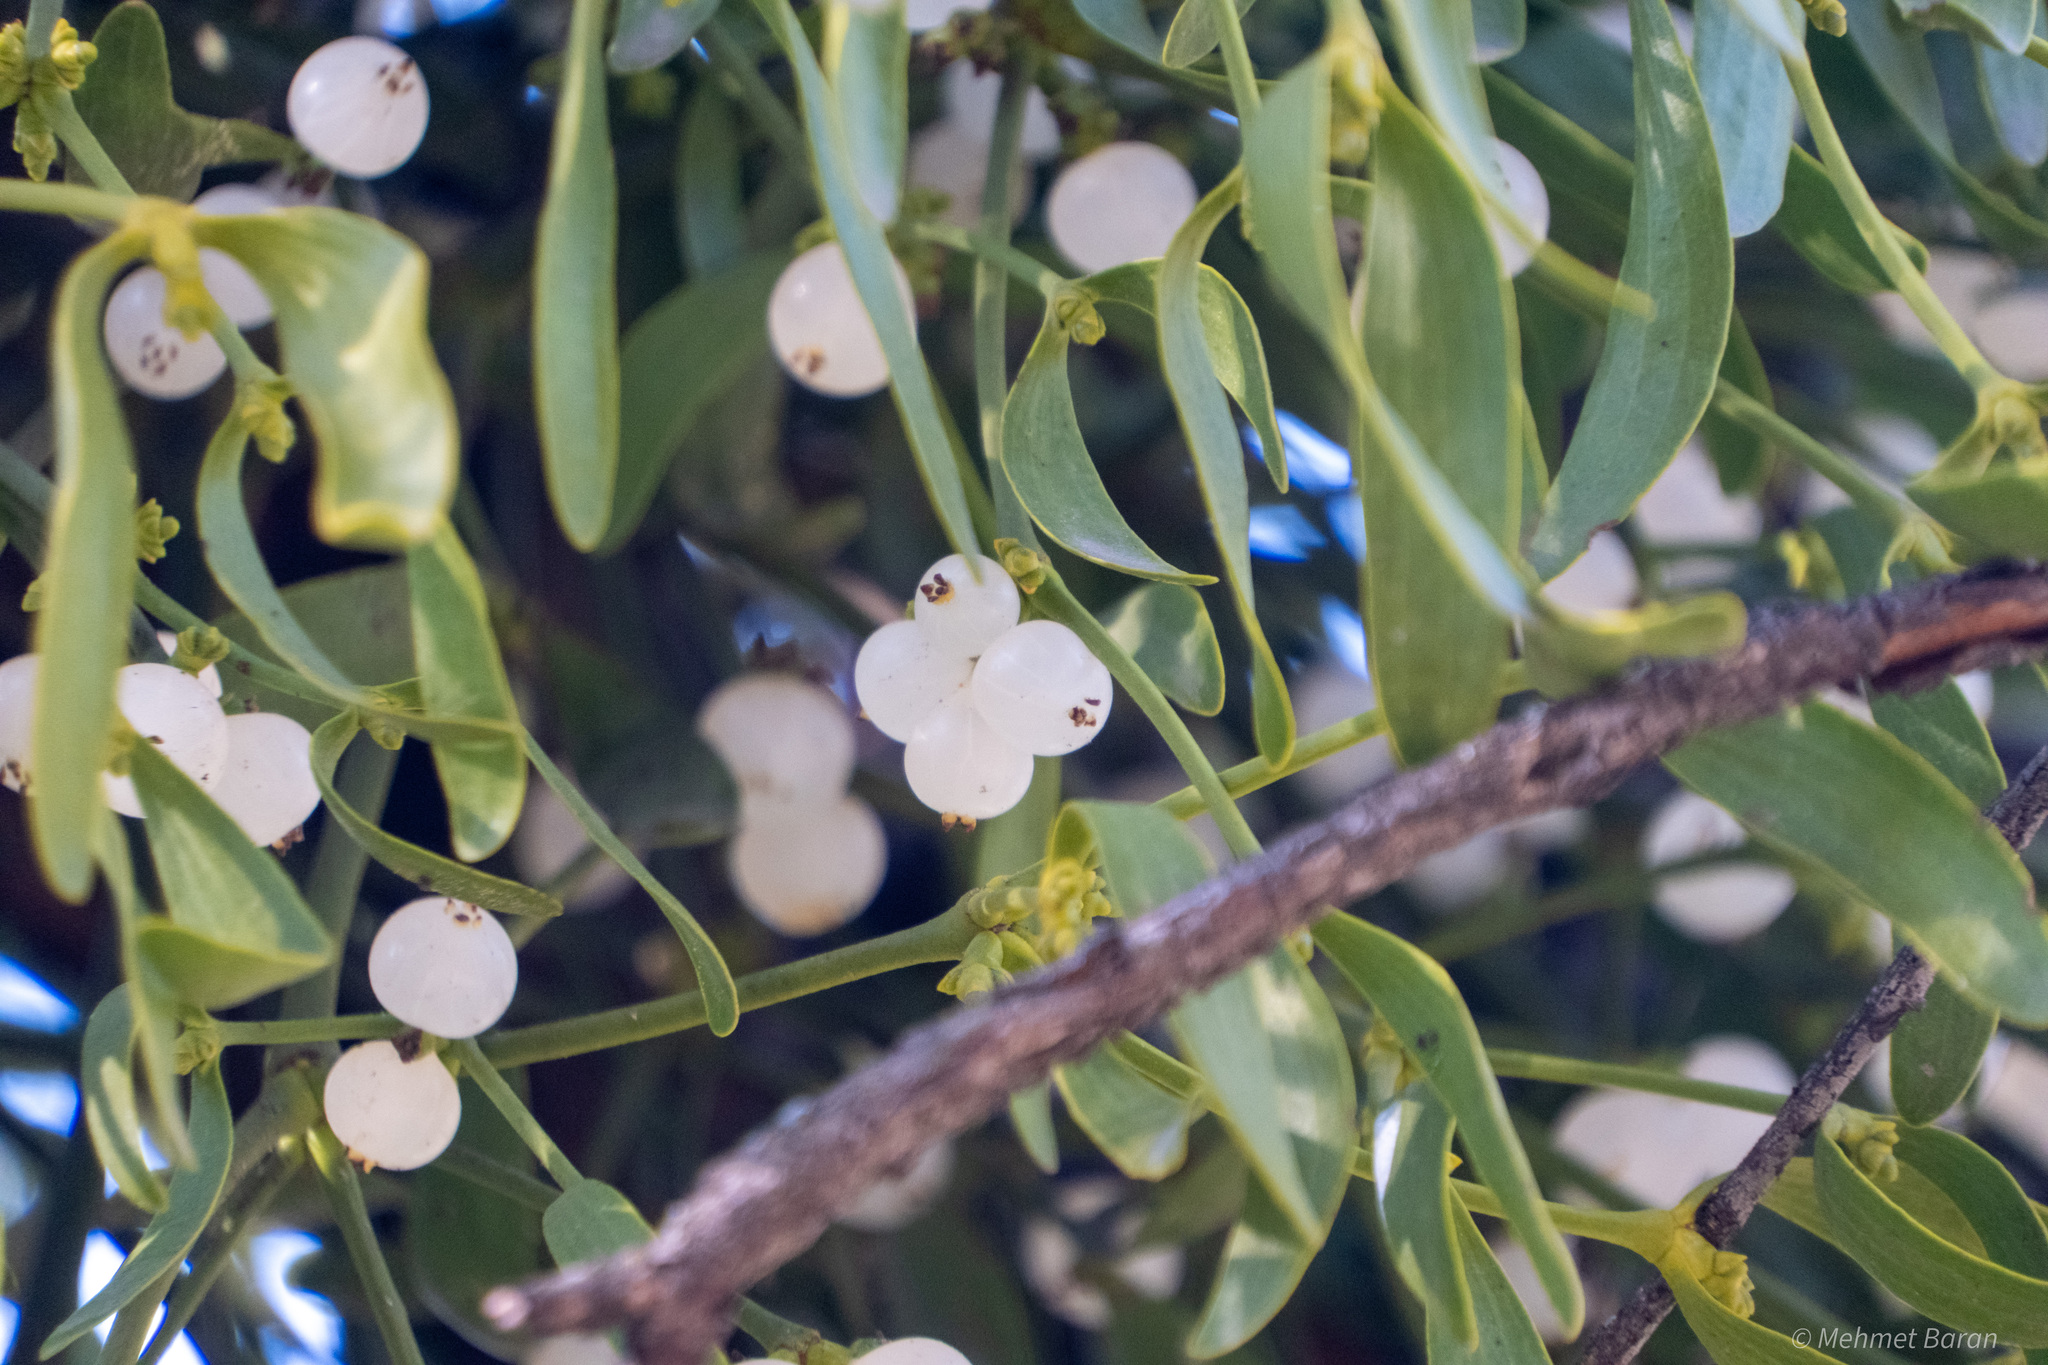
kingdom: Plantae
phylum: Tracheophyta
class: Magnoliopsida
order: Santalales
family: Viscaceae
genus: Viscum
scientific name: Viscum album
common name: Mistletoe
